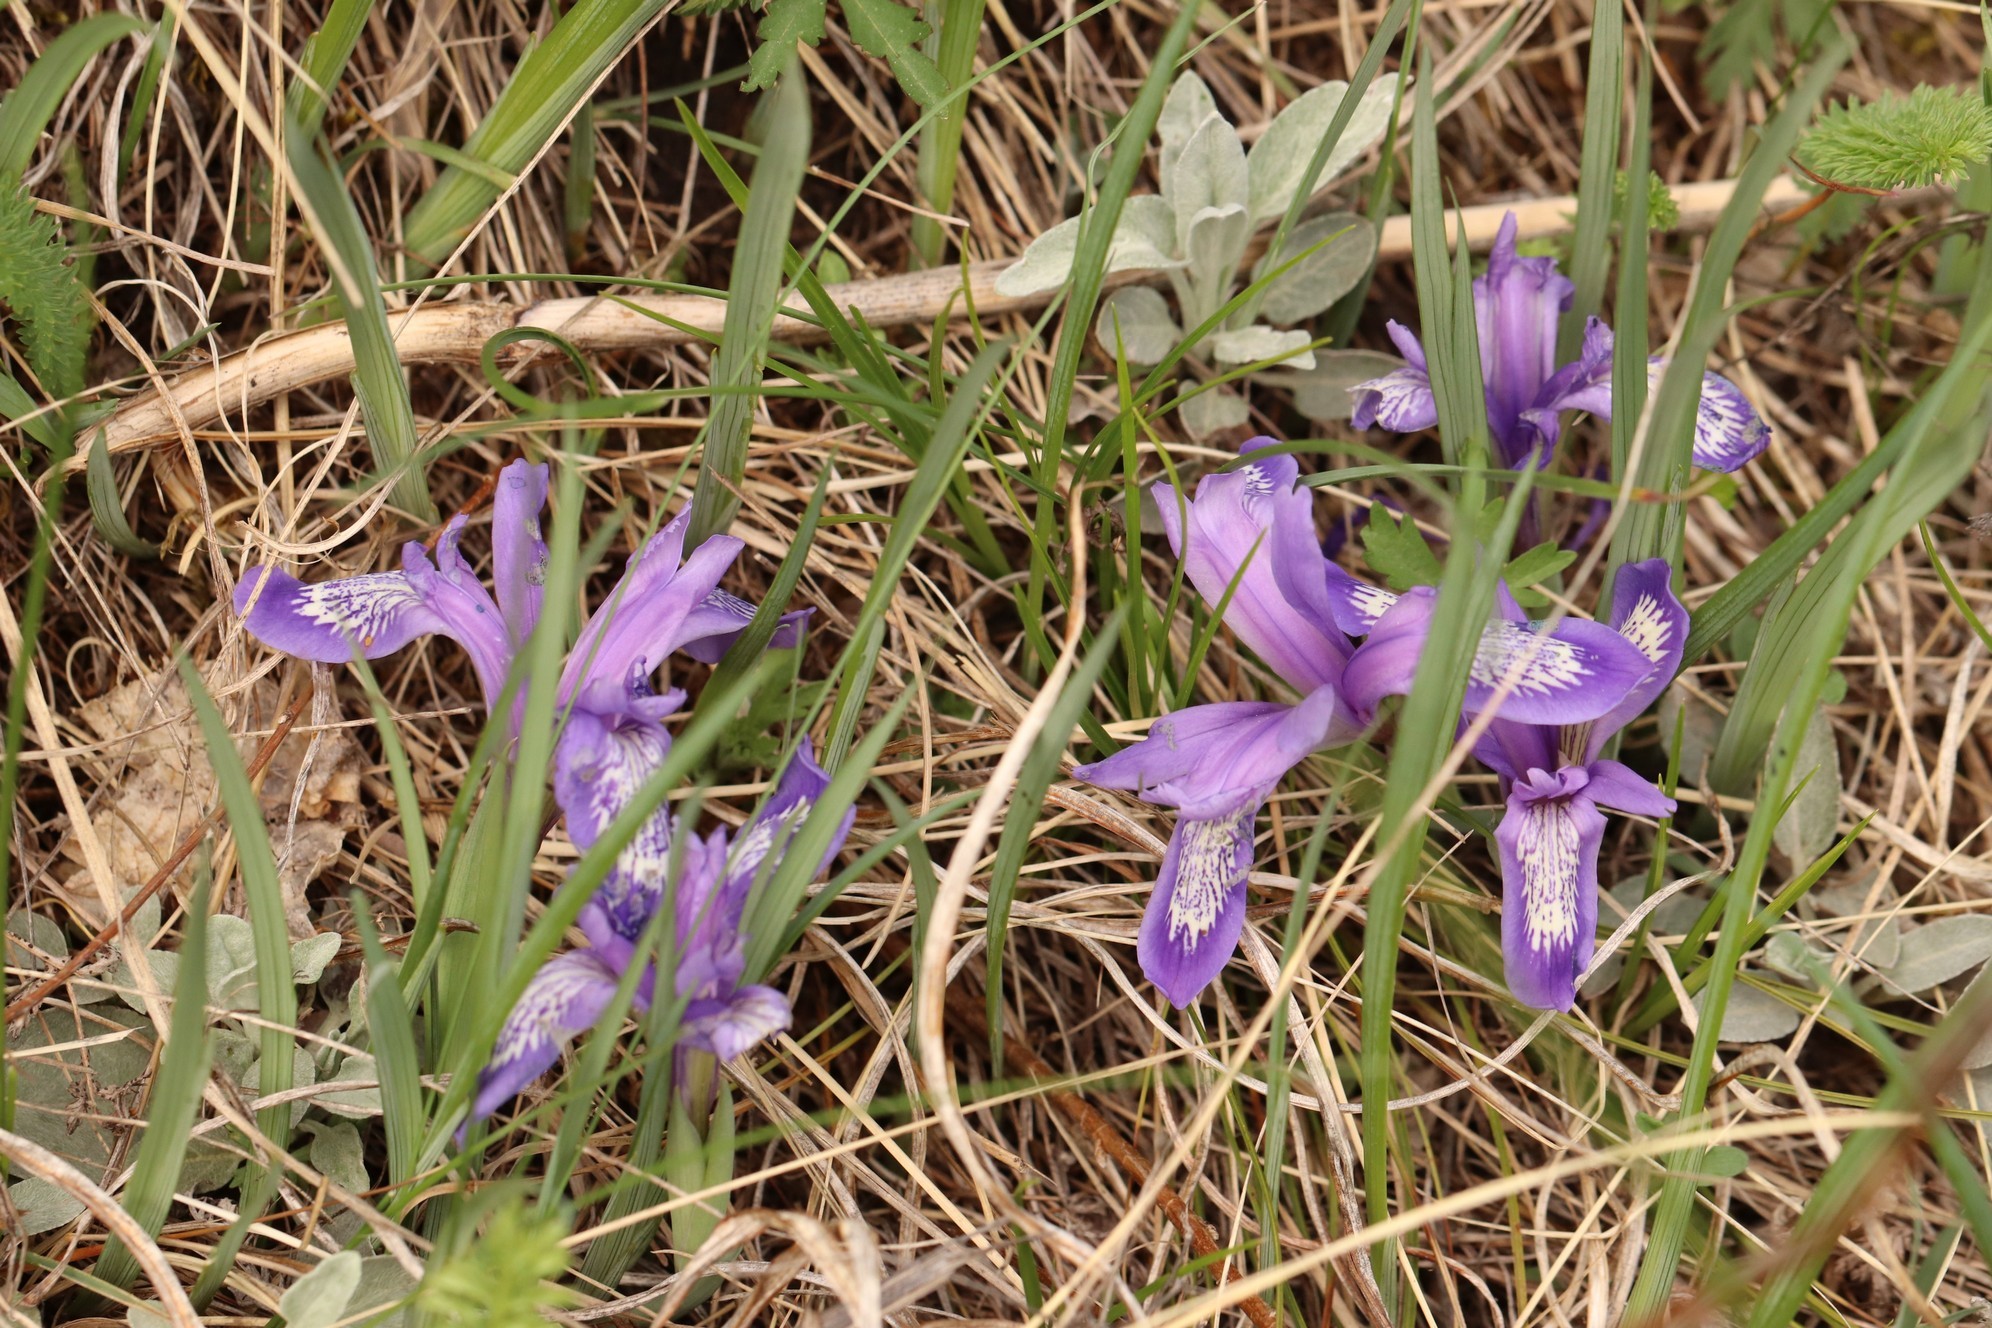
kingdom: Plantae
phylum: Tracheophyta
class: Liliopsida
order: Asparagales
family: Iridaceae
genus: Iris
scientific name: Iris ruthenica
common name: Purple-bract iris
